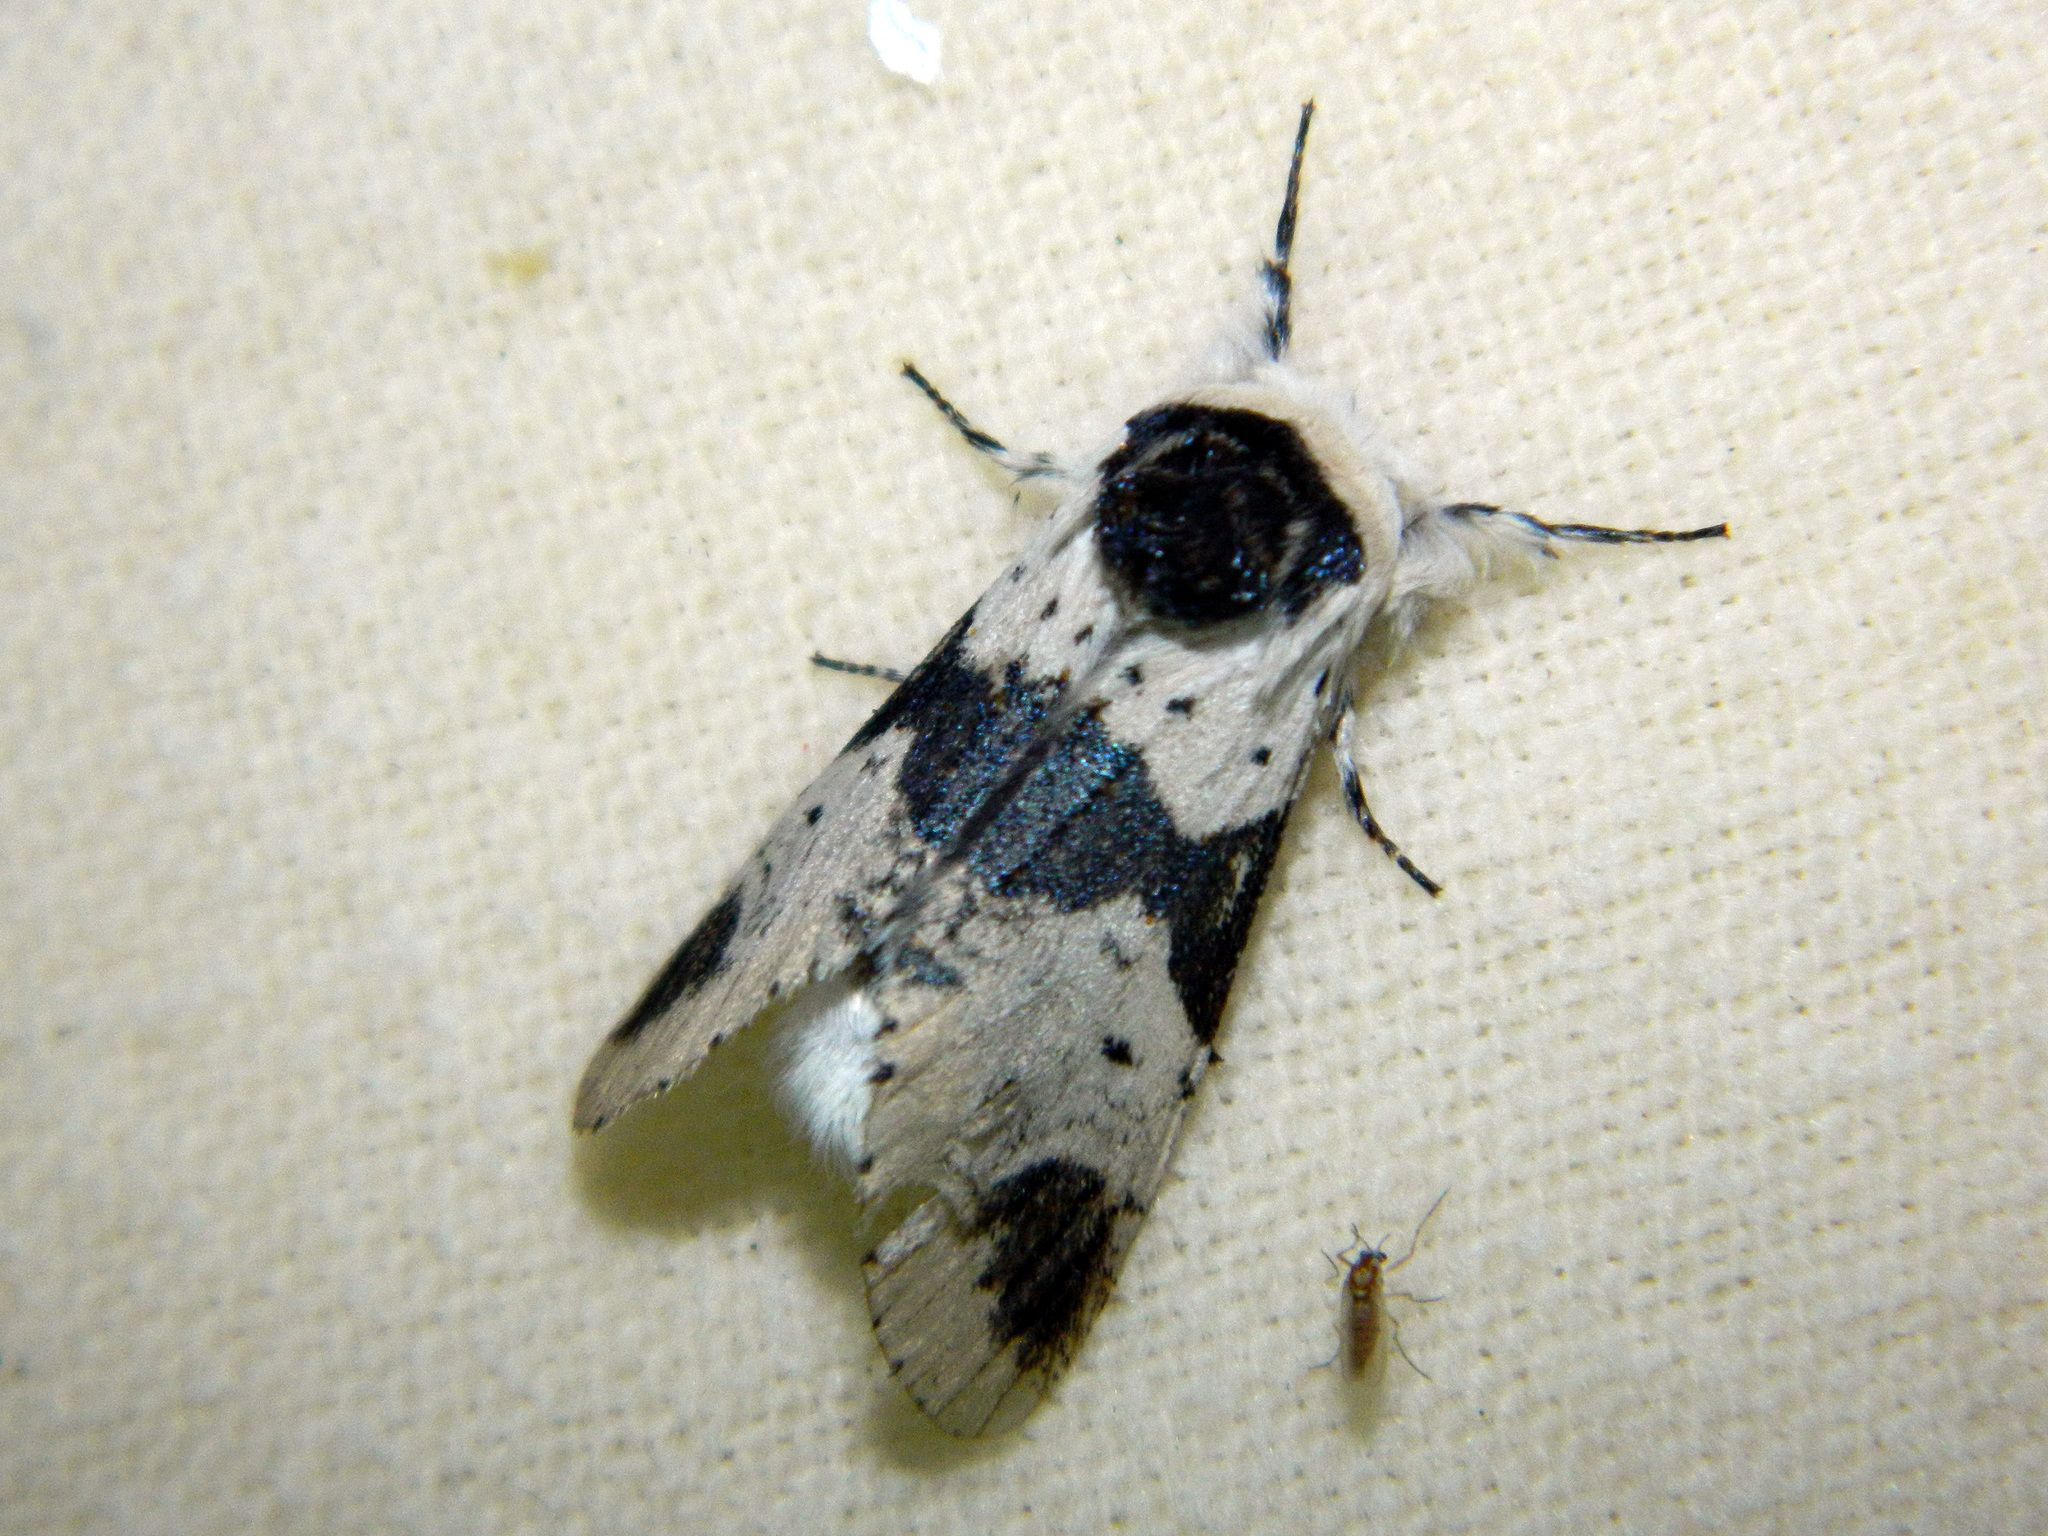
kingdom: Animalia
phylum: Arthropoda
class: Insecta
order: Lepidoptera
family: Notodontidae
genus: Furcula
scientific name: Furcula modesta
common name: Modest furcula moth
